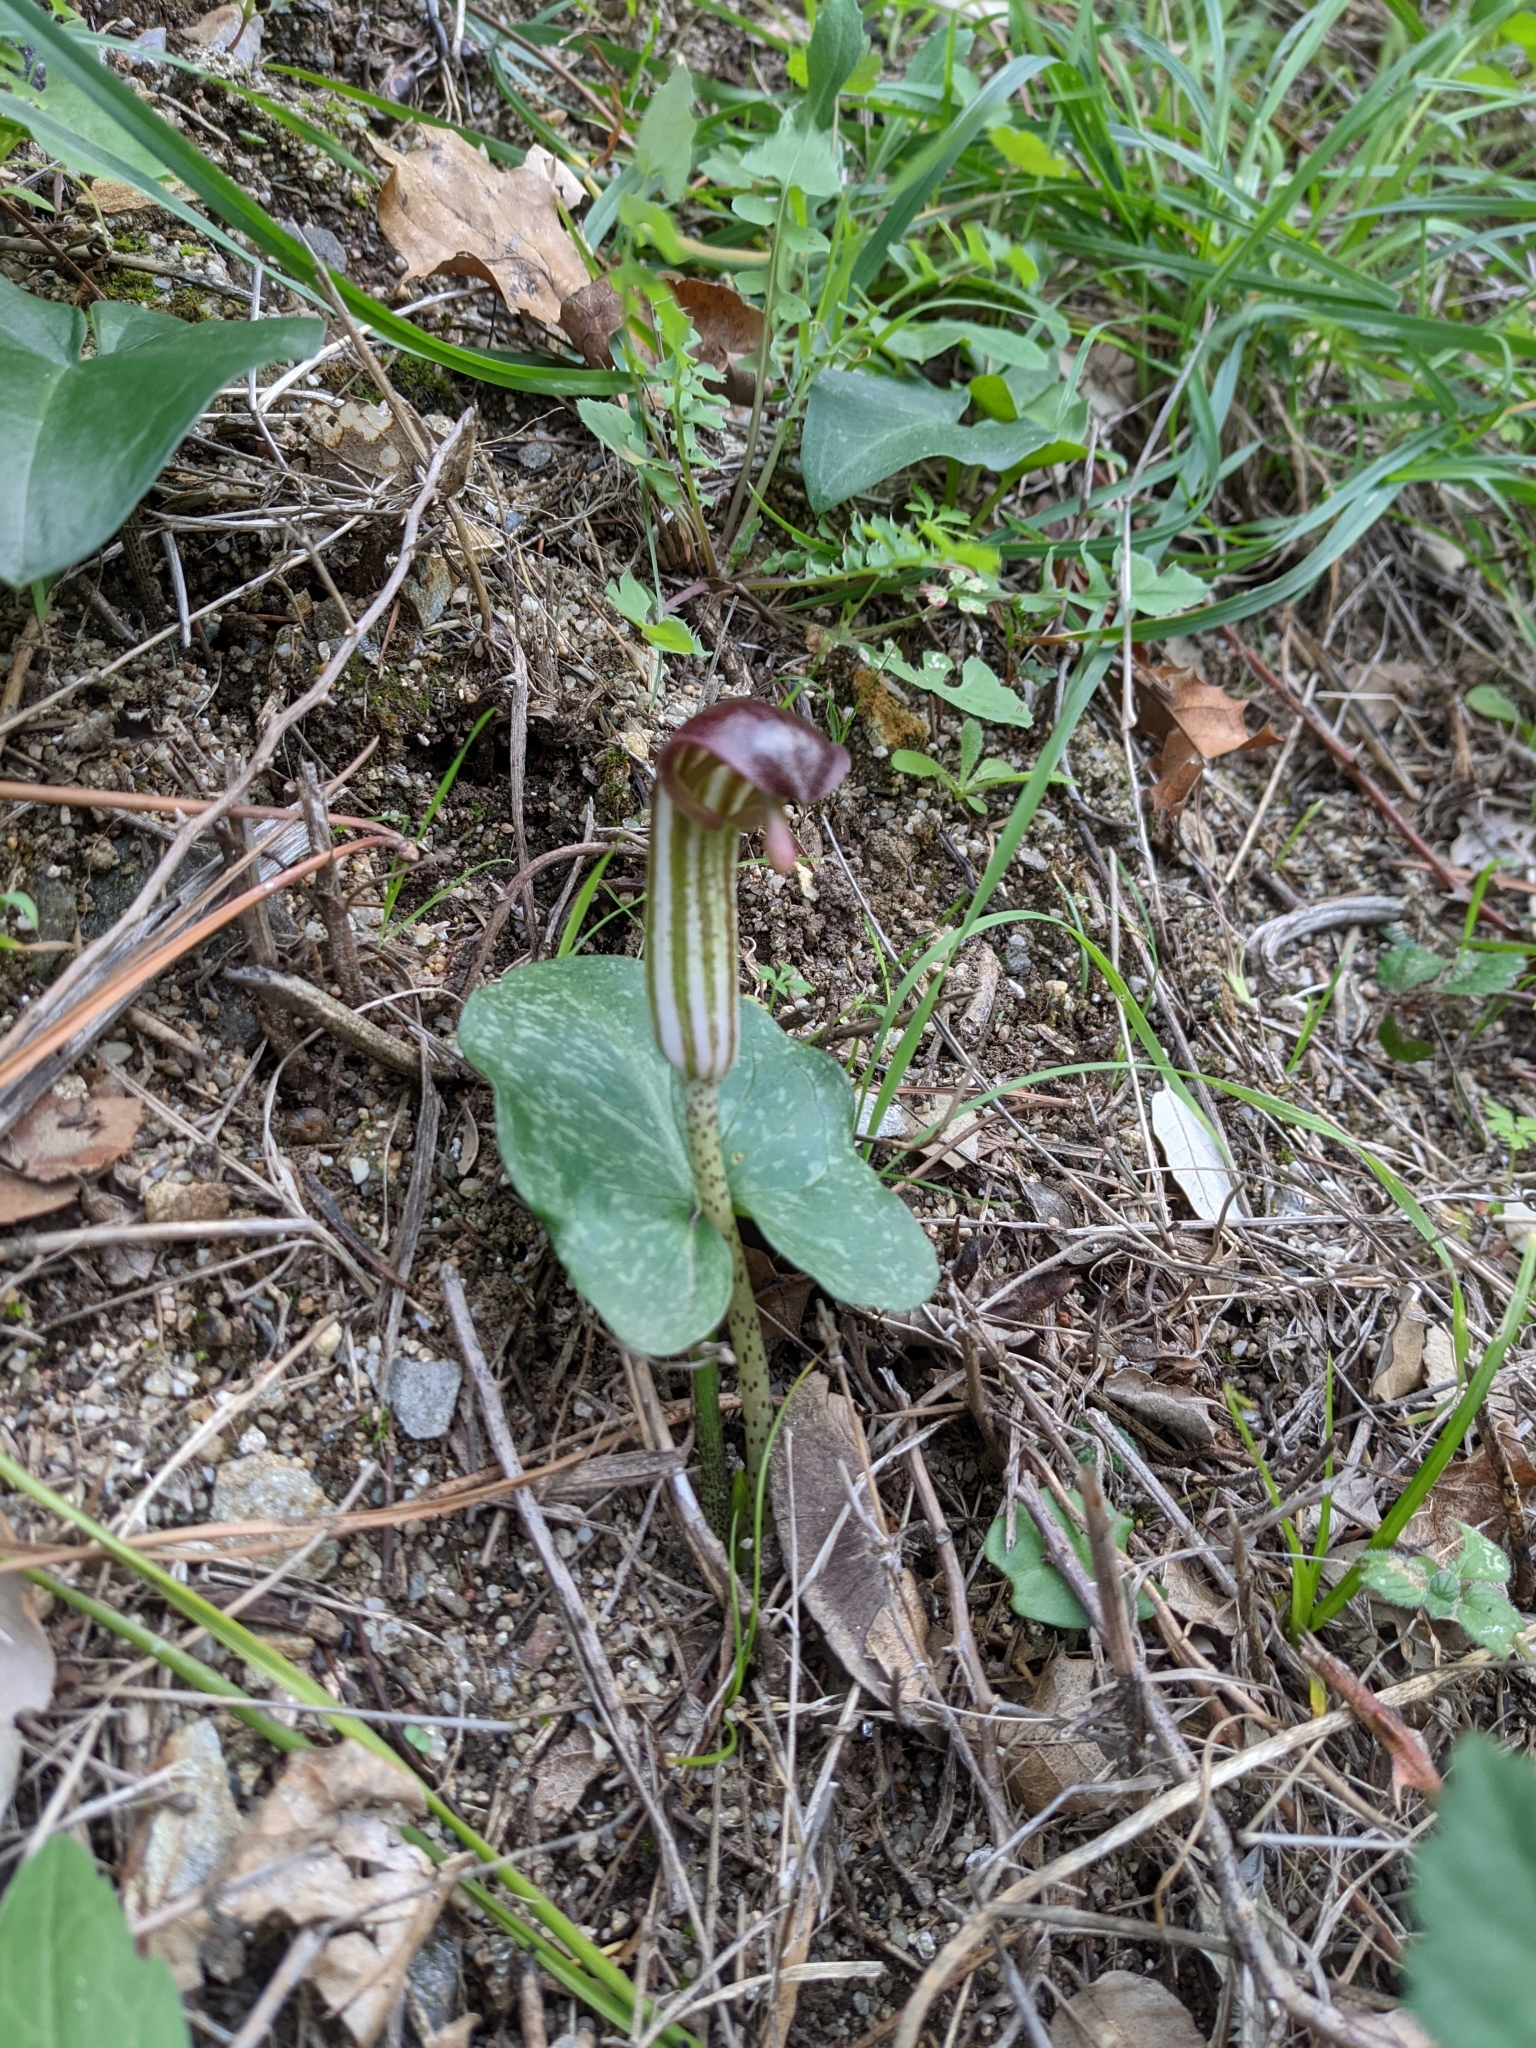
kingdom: Plantae
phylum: Tracheophyta
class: Liliopsida
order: Alismatales
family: Araceae
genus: Arisarum
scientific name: Arisarum vulgare
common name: Common arisarum
